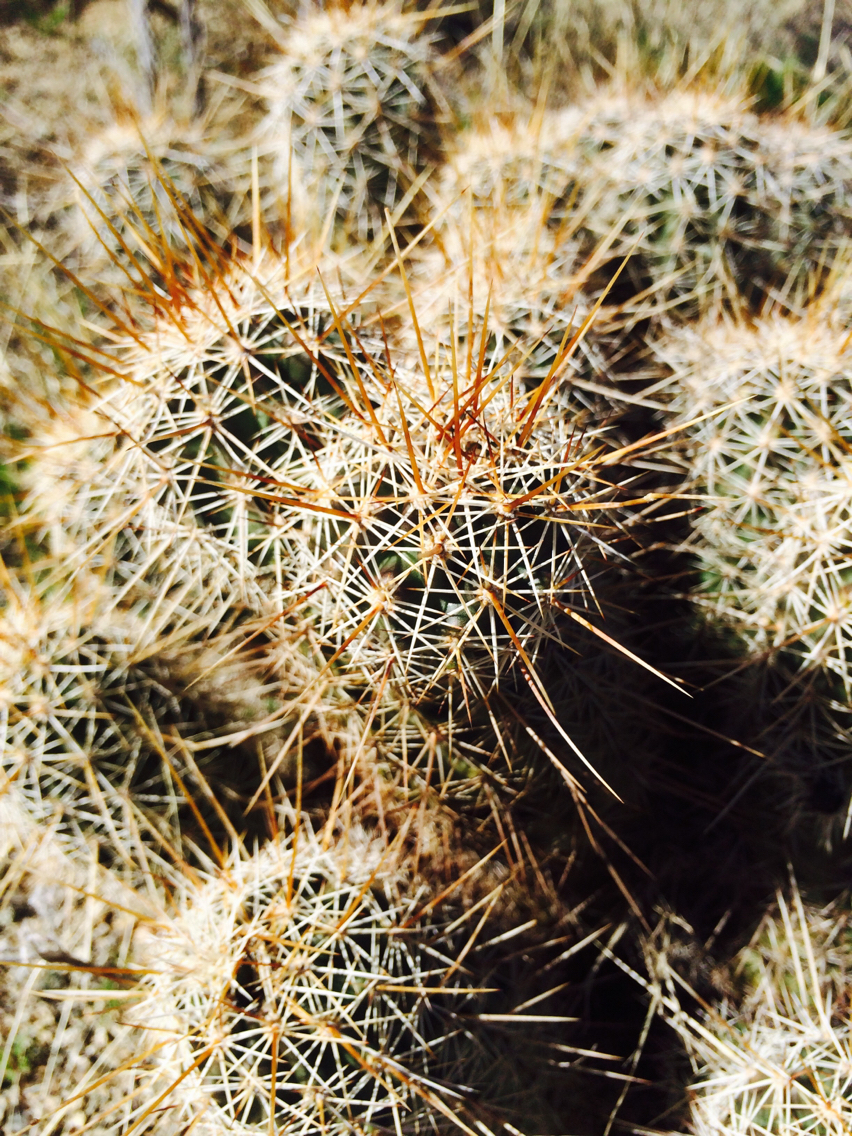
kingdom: Plantae
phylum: Tracheophyta
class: Magnoliopsida
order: Caryophyllales
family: Cactaceae
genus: Echinocereus
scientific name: Echinocereus fasciculatus
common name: Bundle hedgehog
